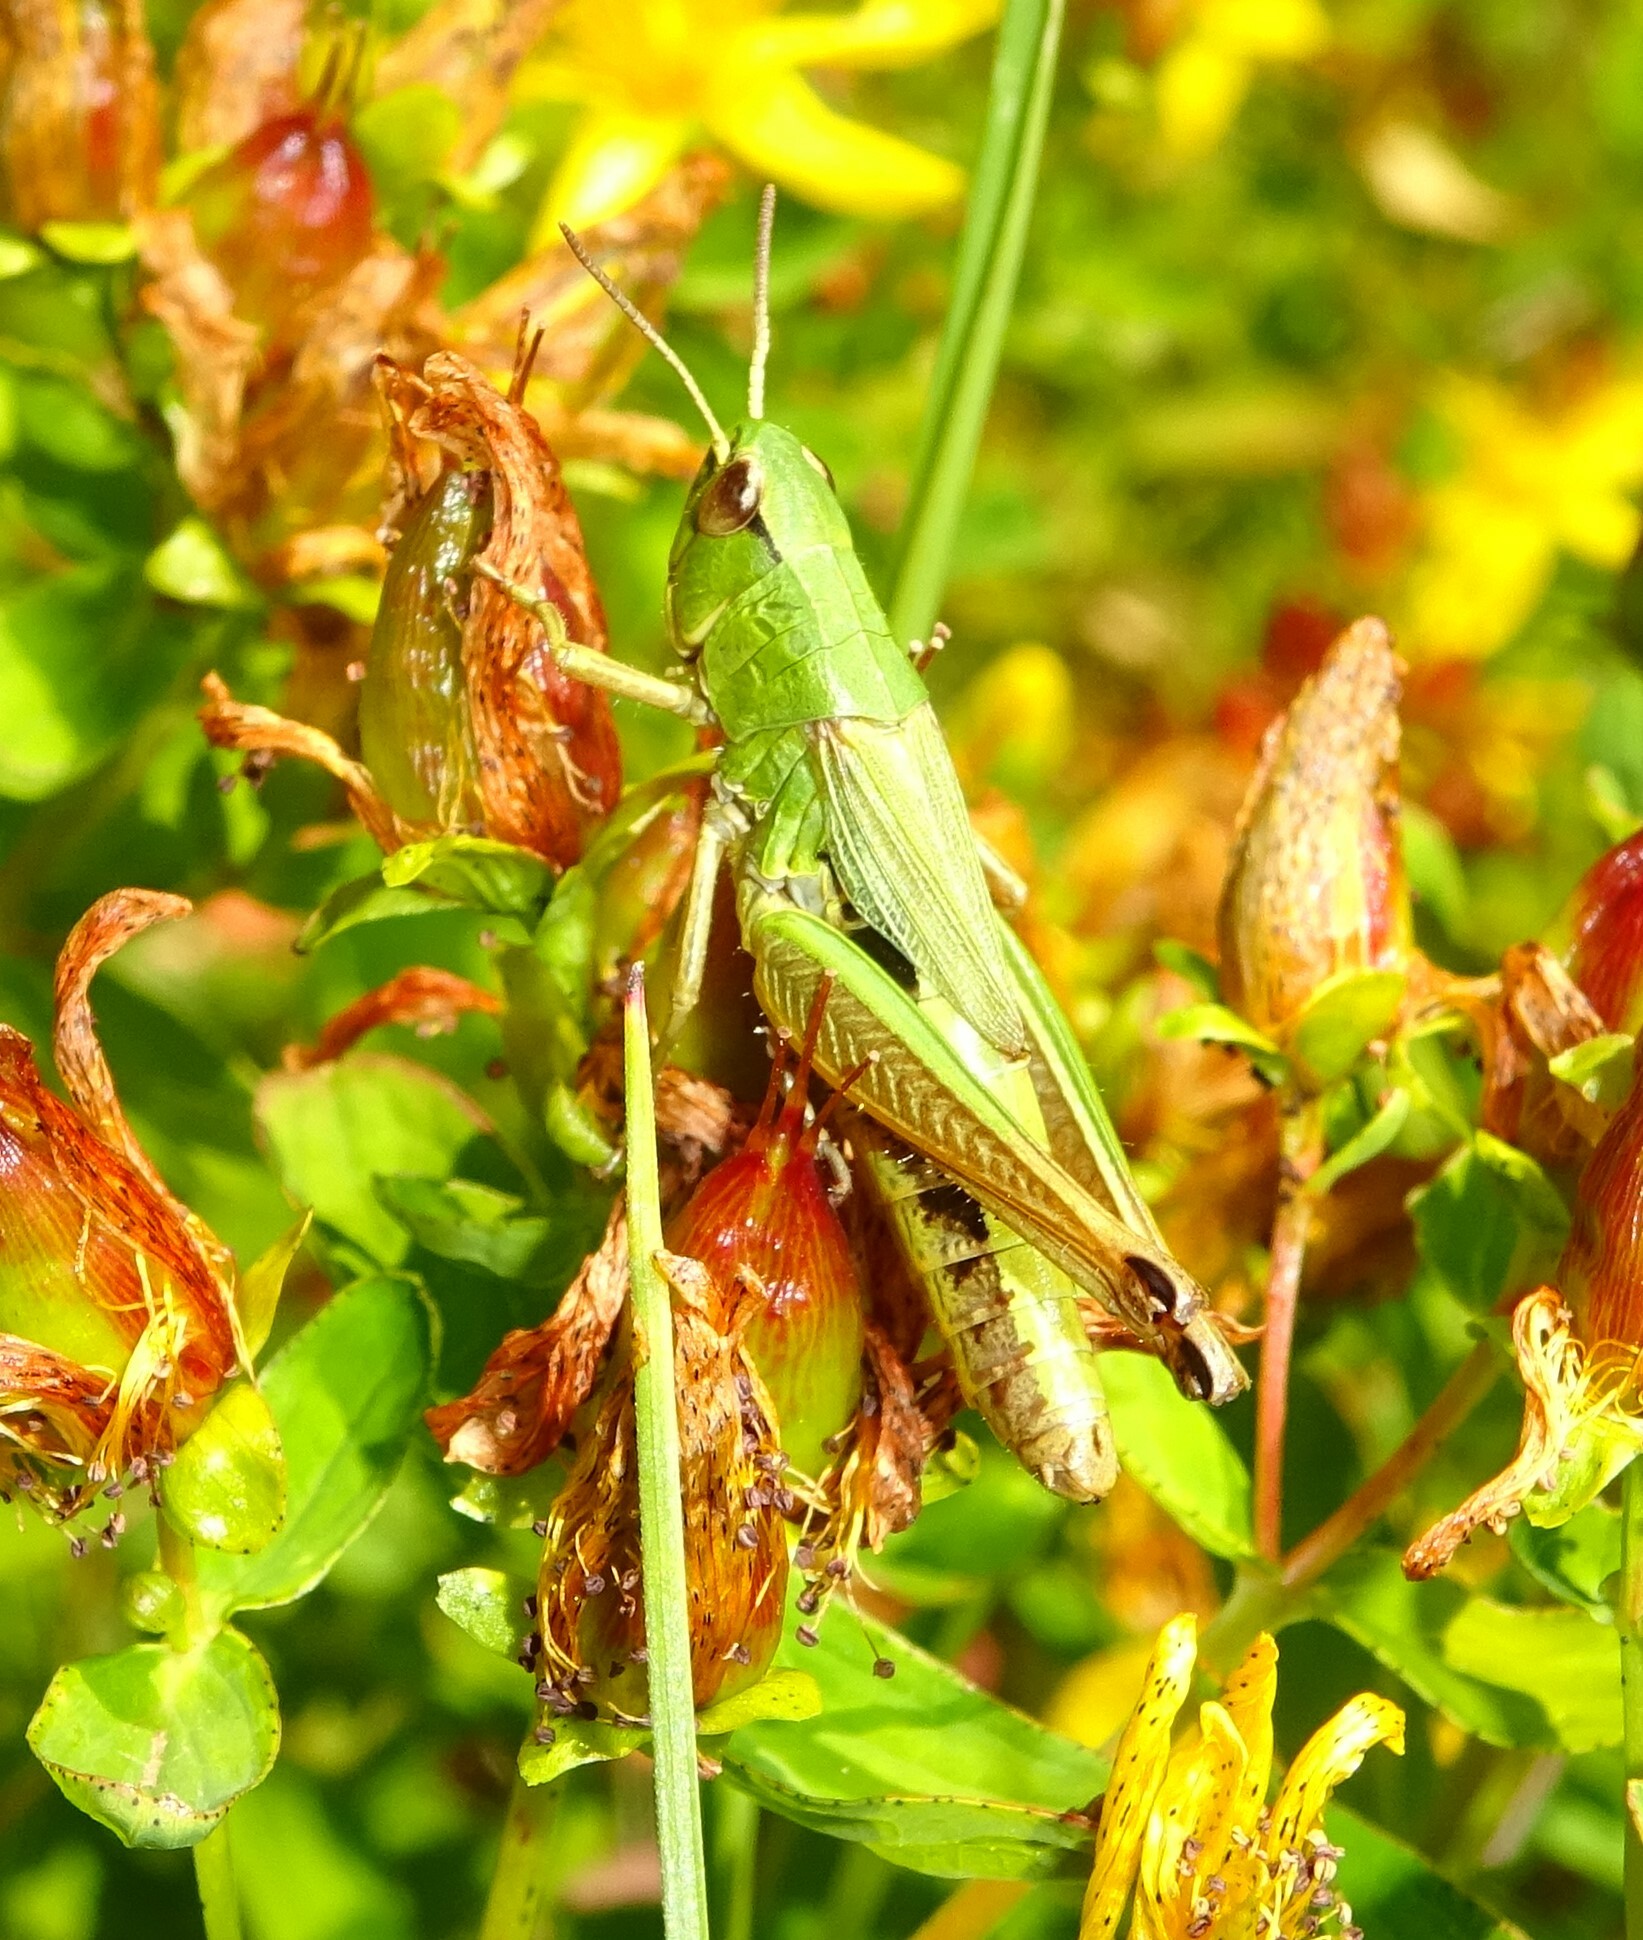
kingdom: Animalia
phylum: Arthropoda
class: Insecta
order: Orthoptera
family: Acrididae
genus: Pseudochorthippus
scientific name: Pseudochorthippus parallelus
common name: Meadow grasshopper
